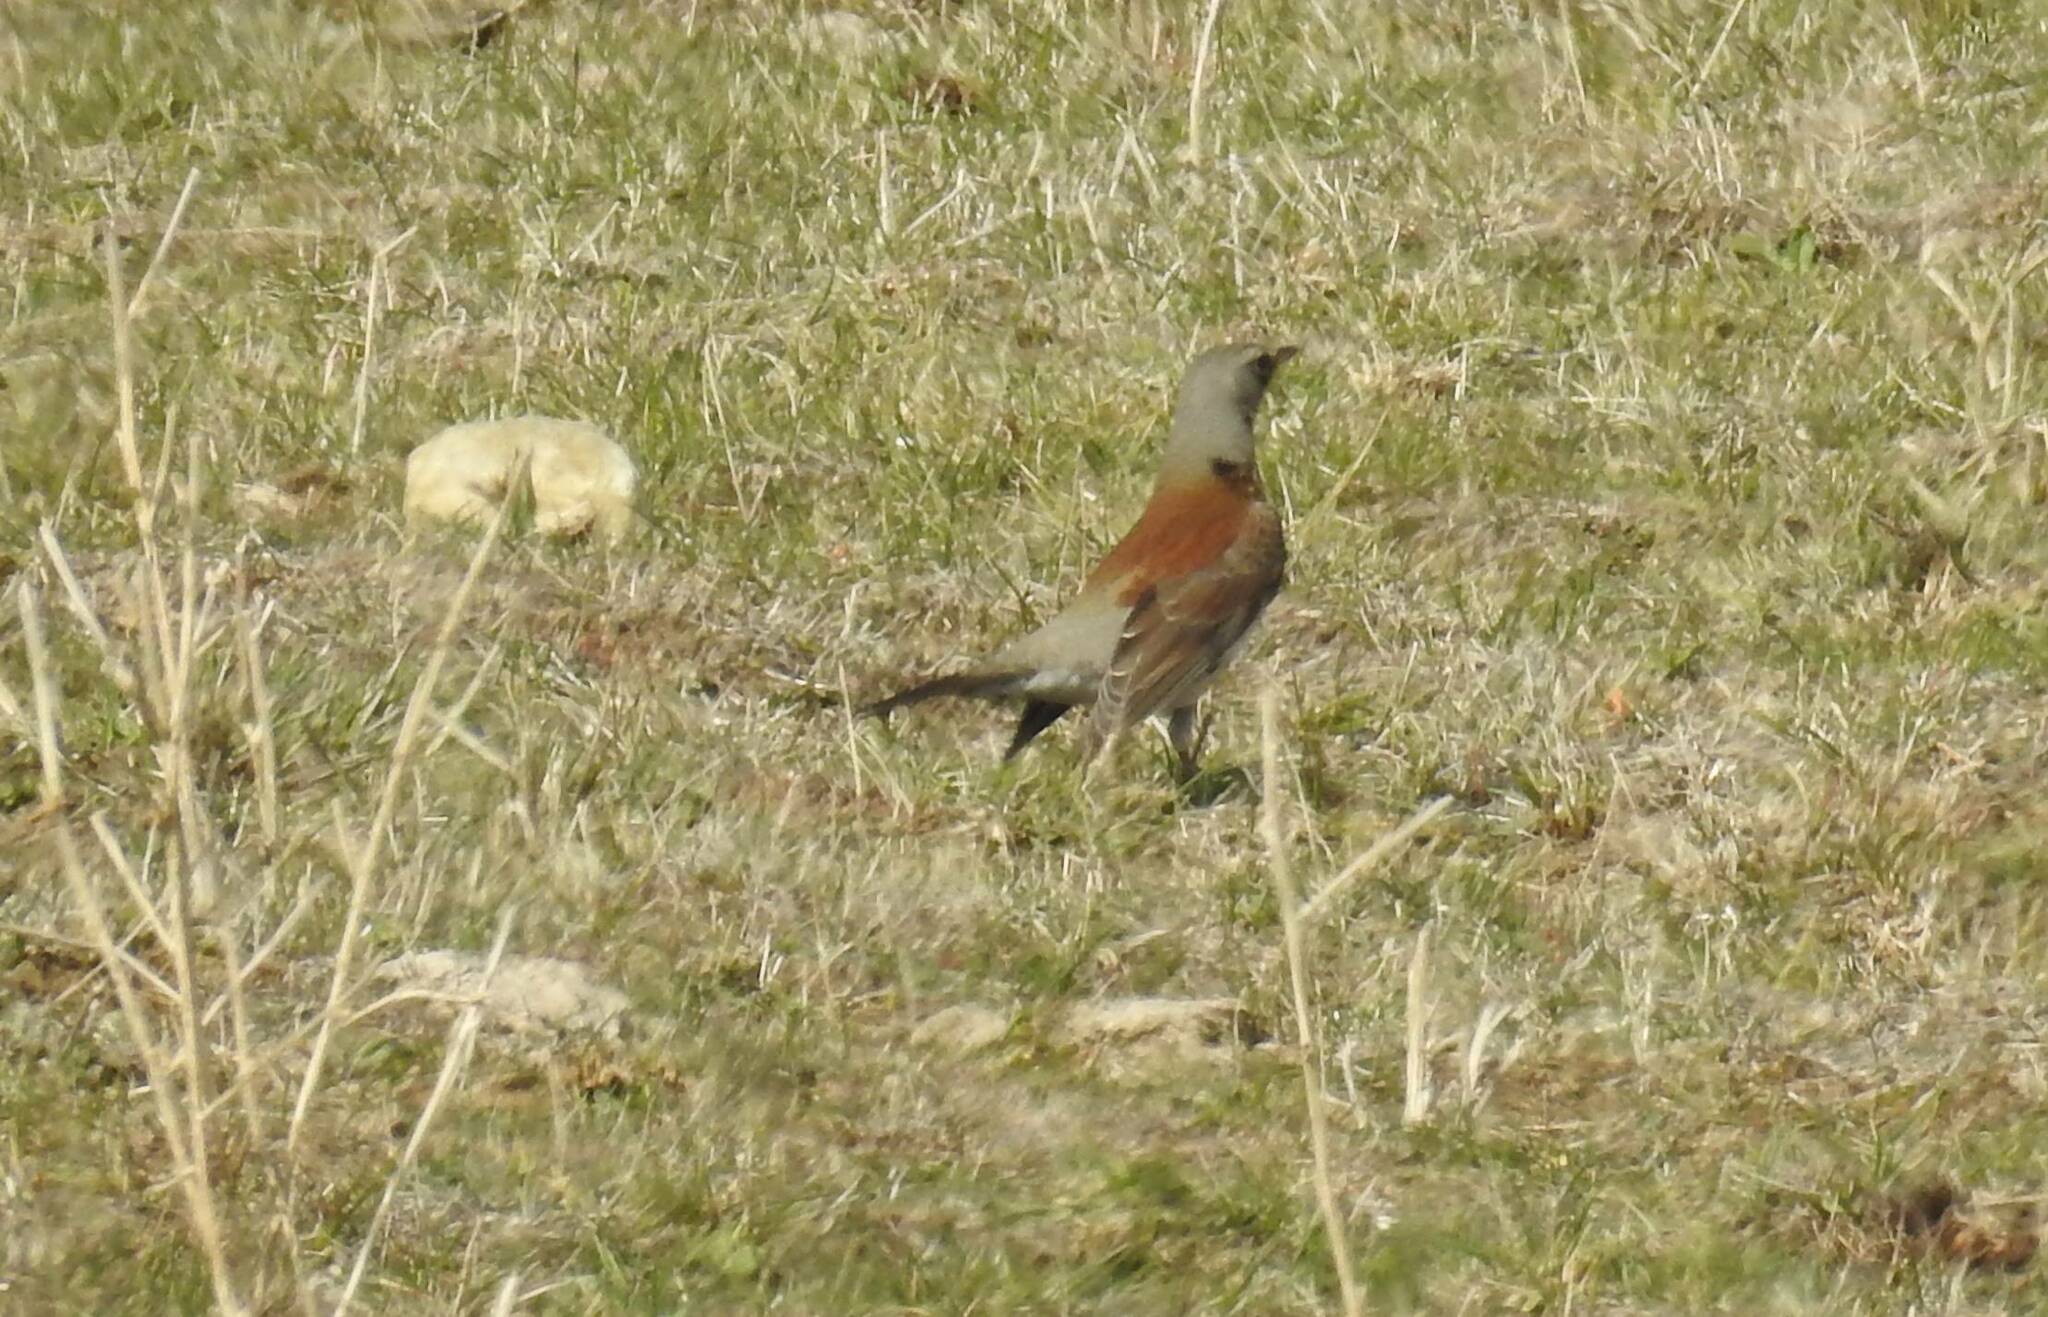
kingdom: Animalia
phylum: Chordata
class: Aves
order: Passeriformes
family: Turdidae
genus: Turdus
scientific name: Turdus pilaris
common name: Fieldfare
